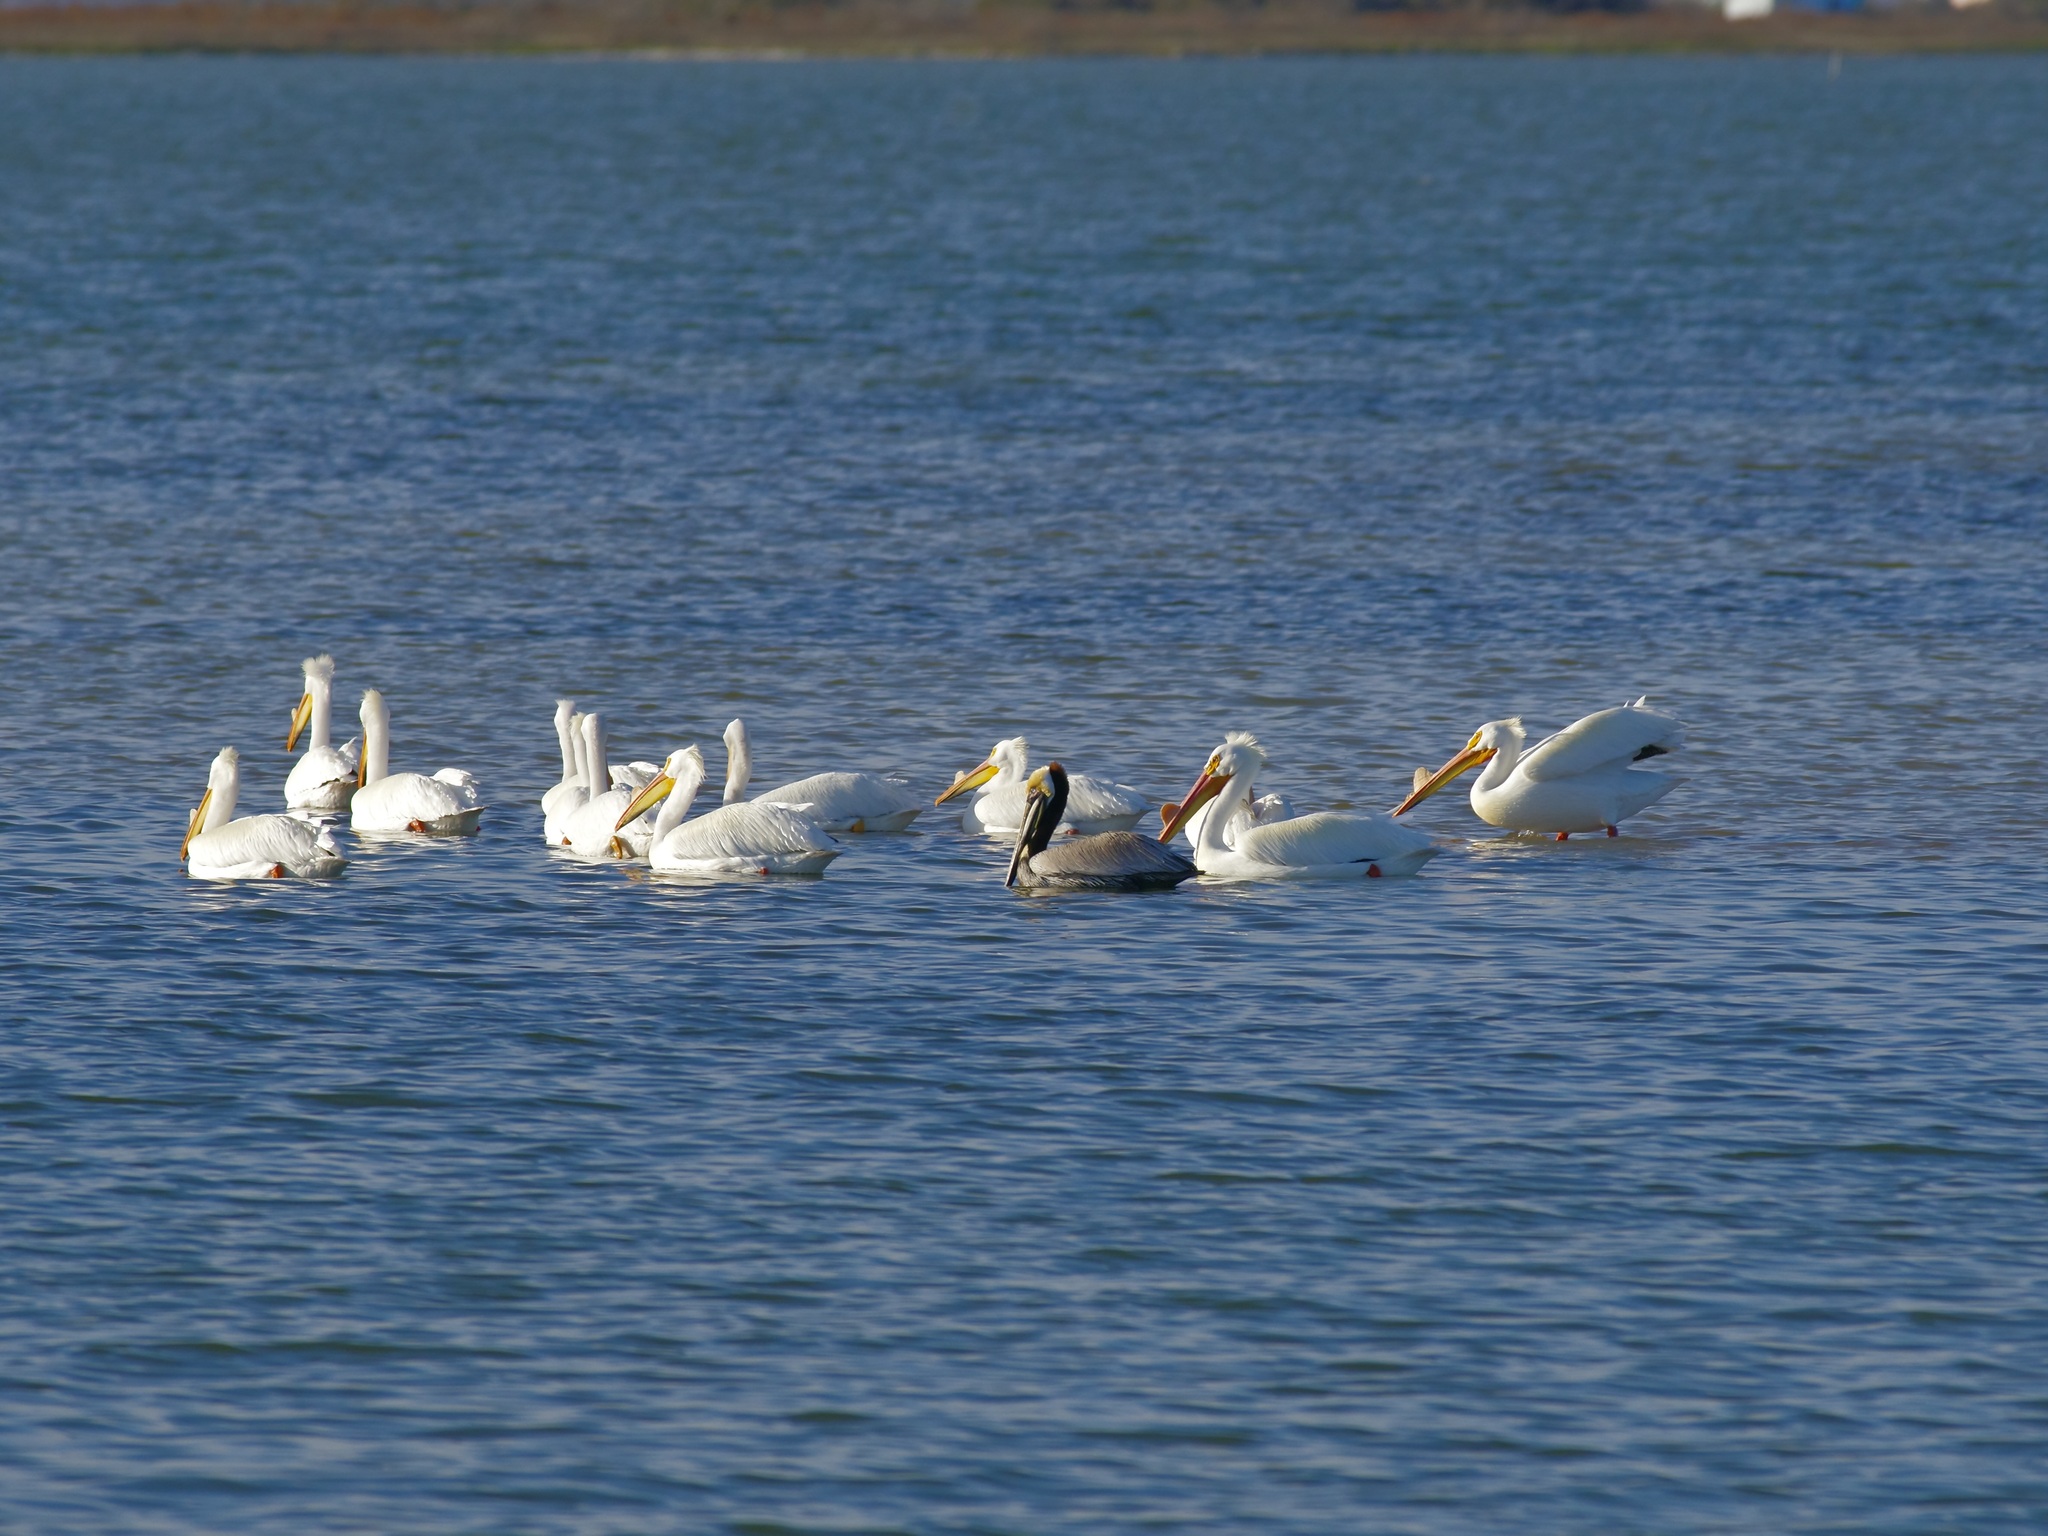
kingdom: Animalia
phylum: Chordata
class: Aves
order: Pelecaniformes
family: Pelecanidae
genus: Pelecanus
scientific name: Pelecanus occidentalis
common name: Brown pelican
